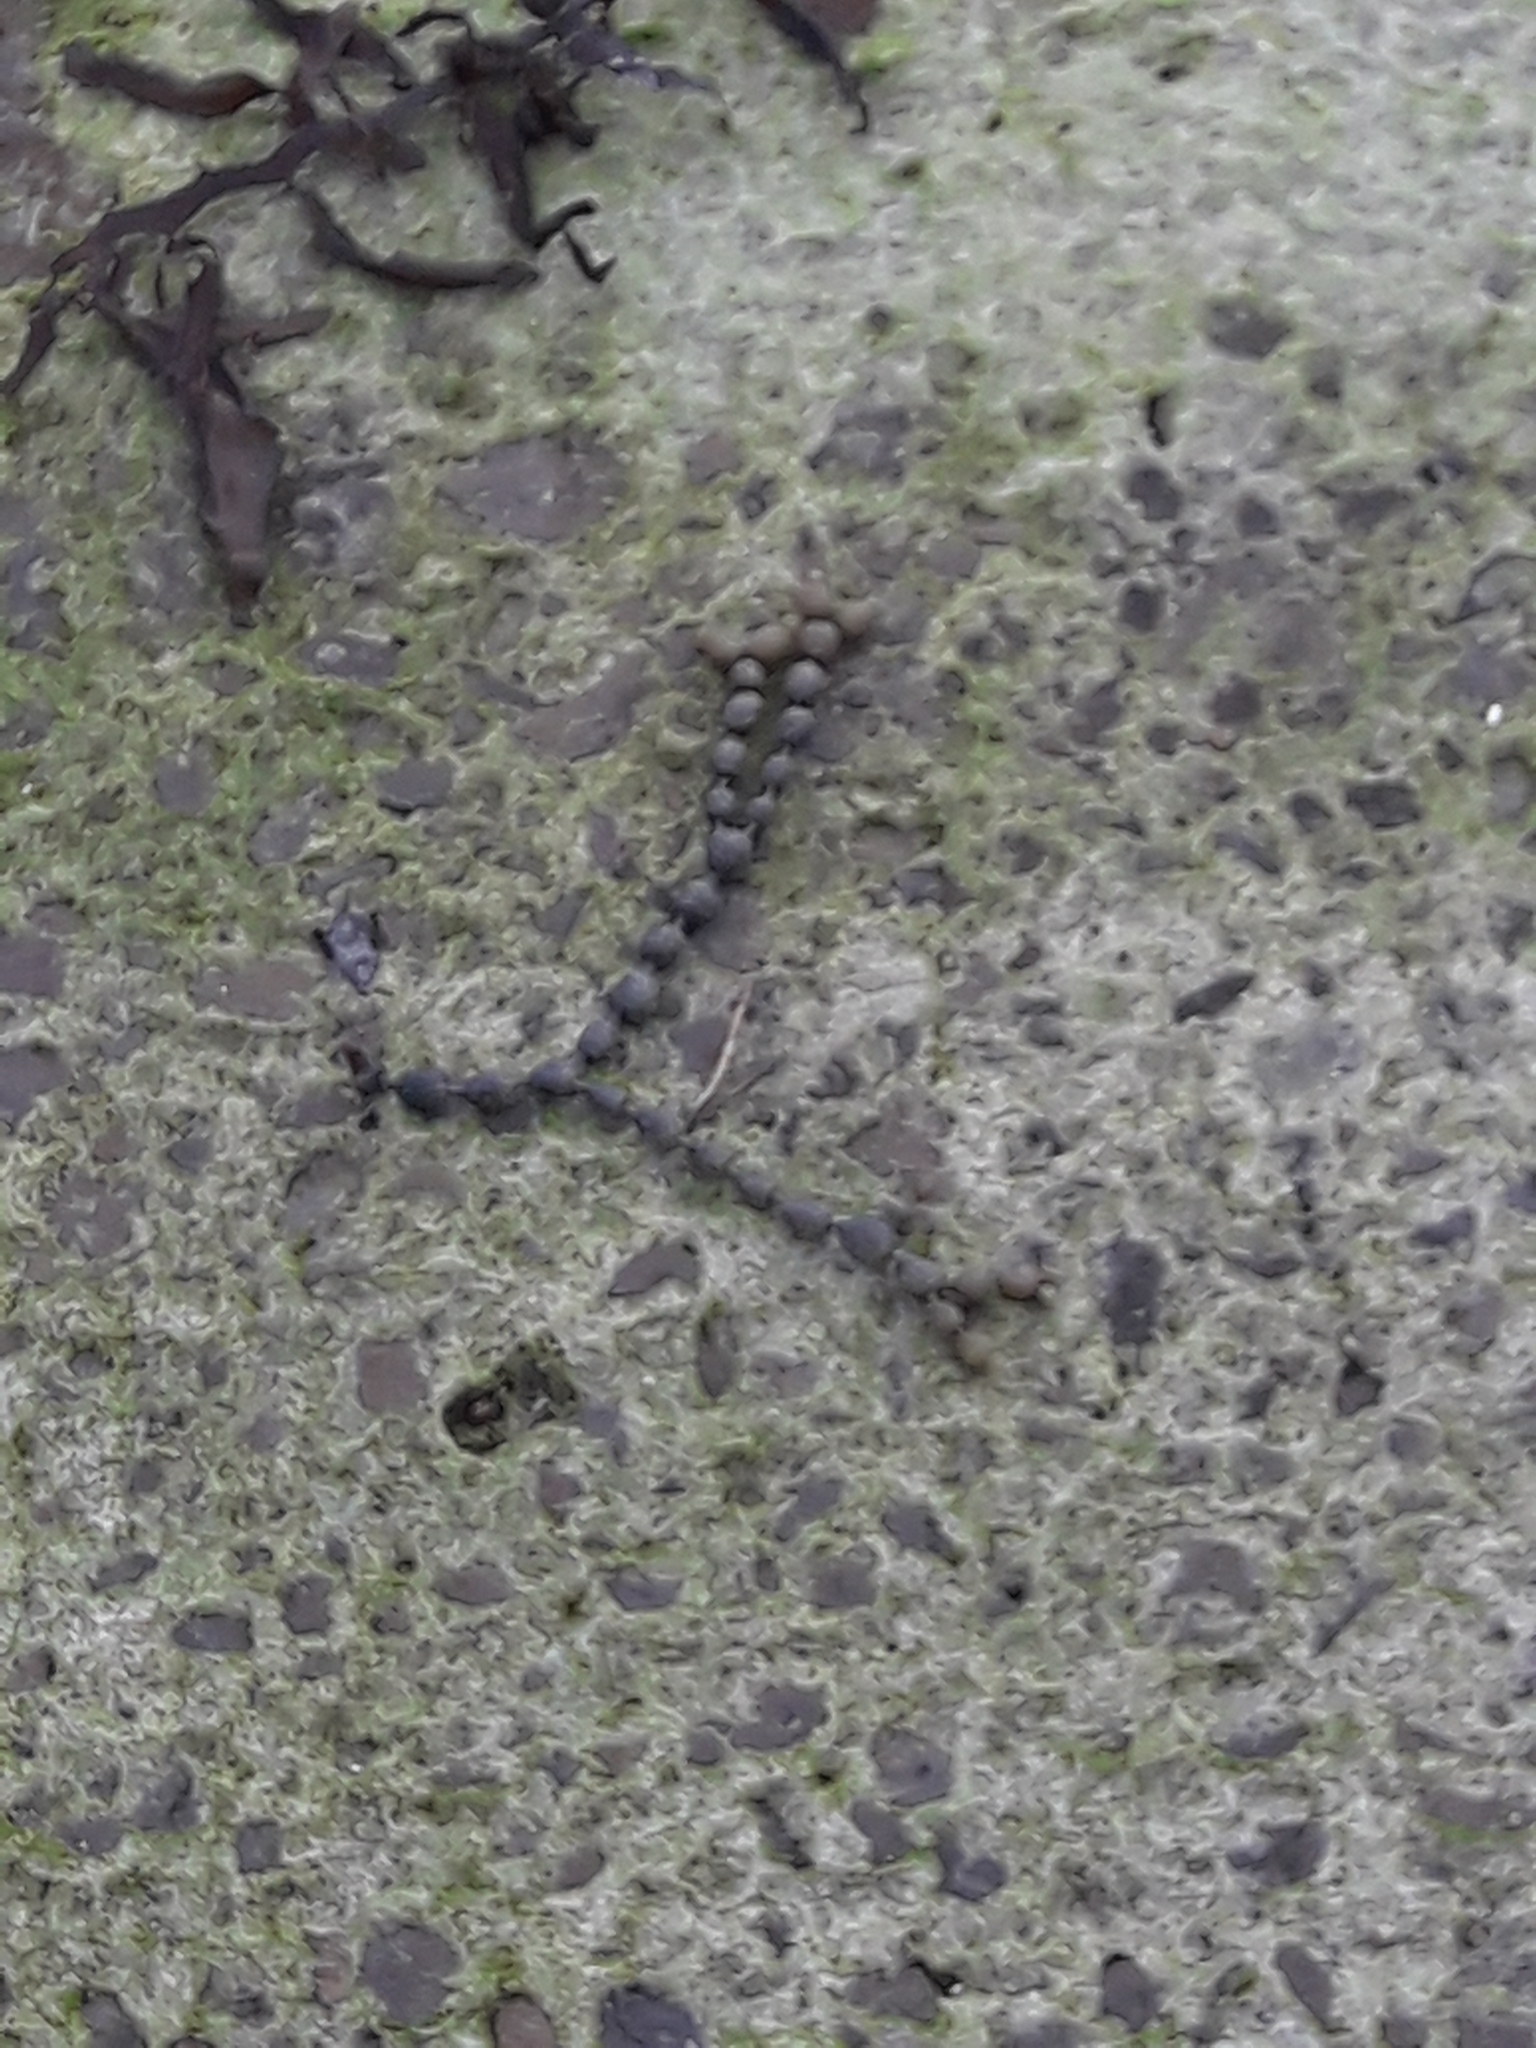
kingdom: Chromista
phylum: Ochrophyta
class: Phaeophyceae
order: Fucales
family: Hormosiraceae
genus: Hormosira
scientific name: Hormosira banksii
